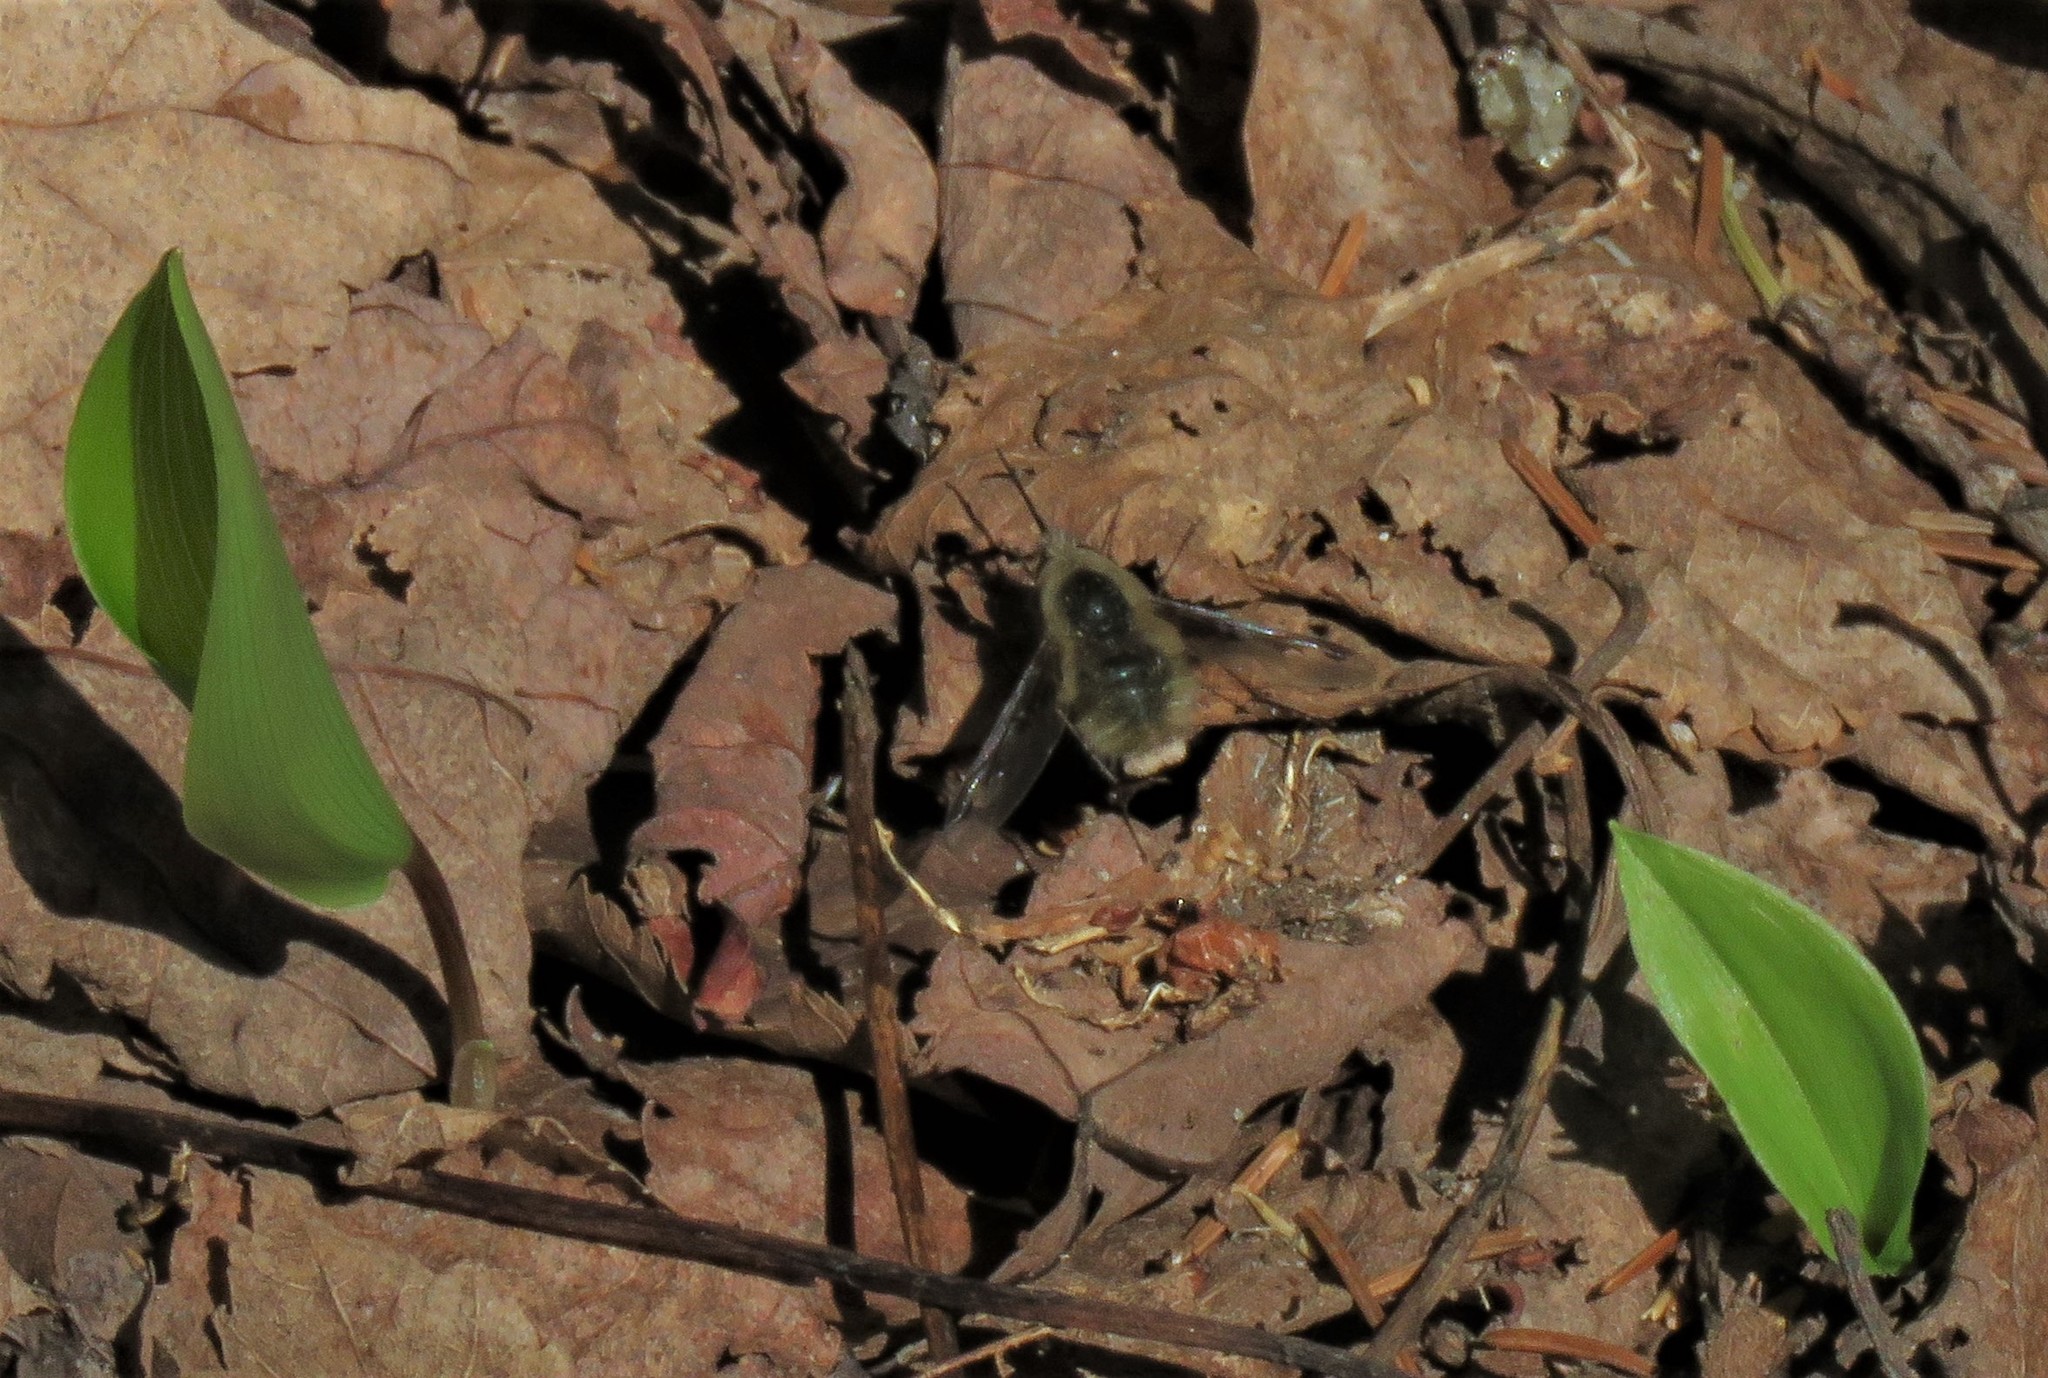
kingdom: Animalia
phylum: Arthropoda
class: Insecta
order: Diptera
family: Bombyliidae
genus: Bombylius
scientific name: Bombylius major
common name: Bee fly
